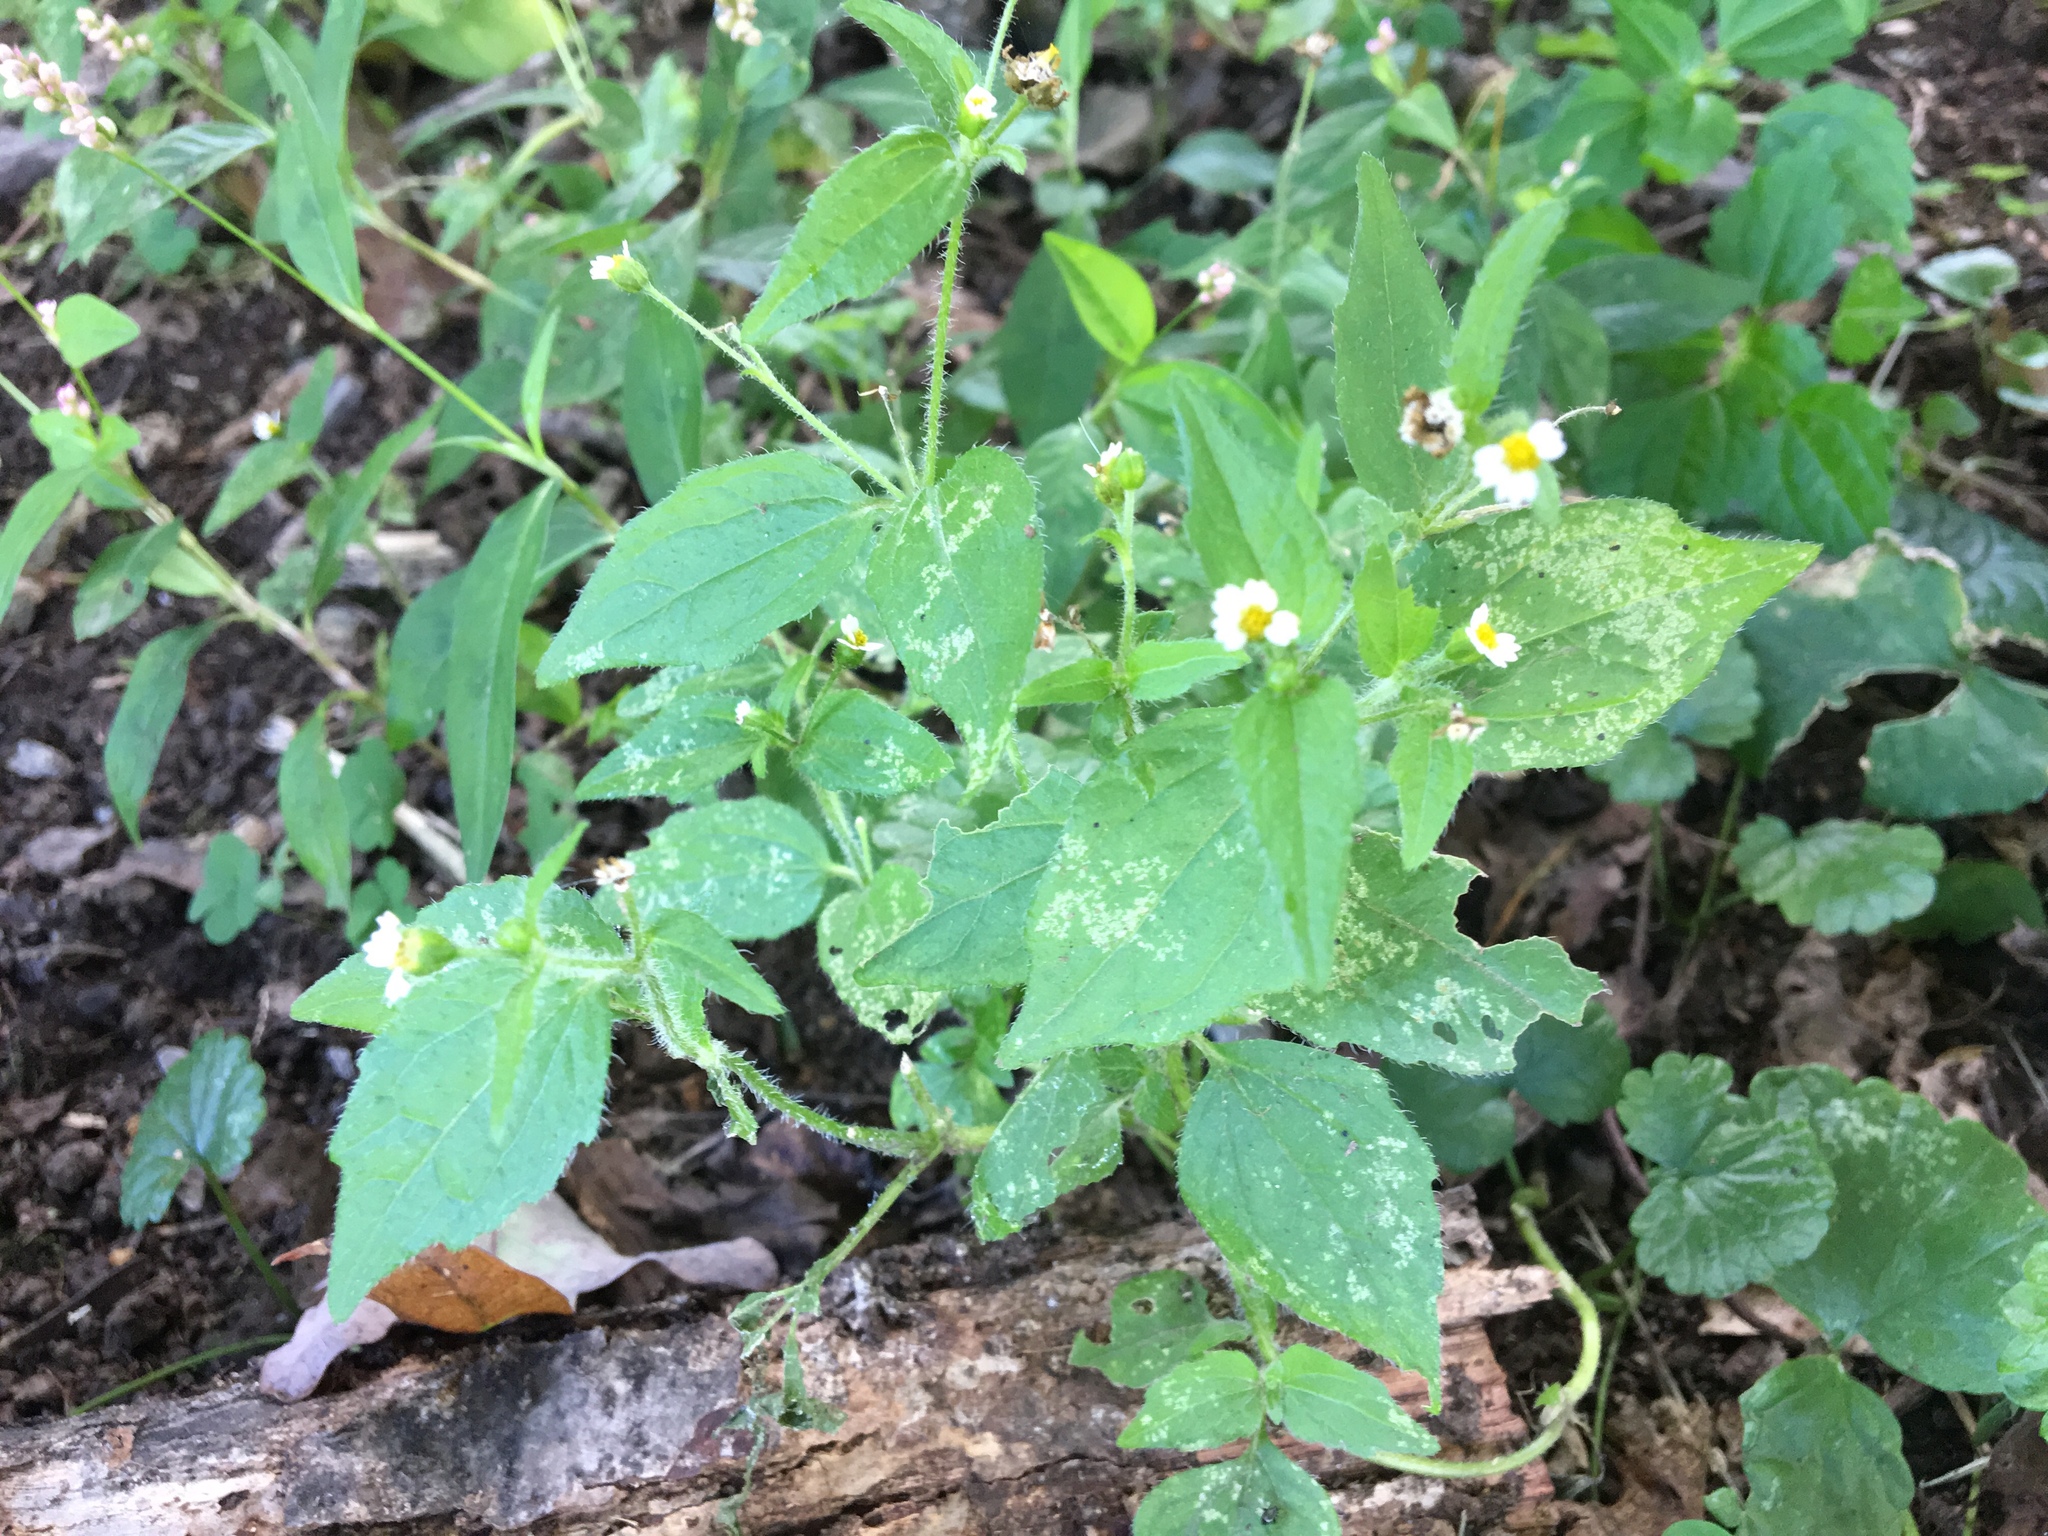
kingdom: Plantae
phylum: Tracheophyta
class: Magnoliopsida
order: Asterales
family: Asteraceae
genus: Galinsoga
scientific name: Galinsoga quadriradiata
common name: Shaggy soldier
